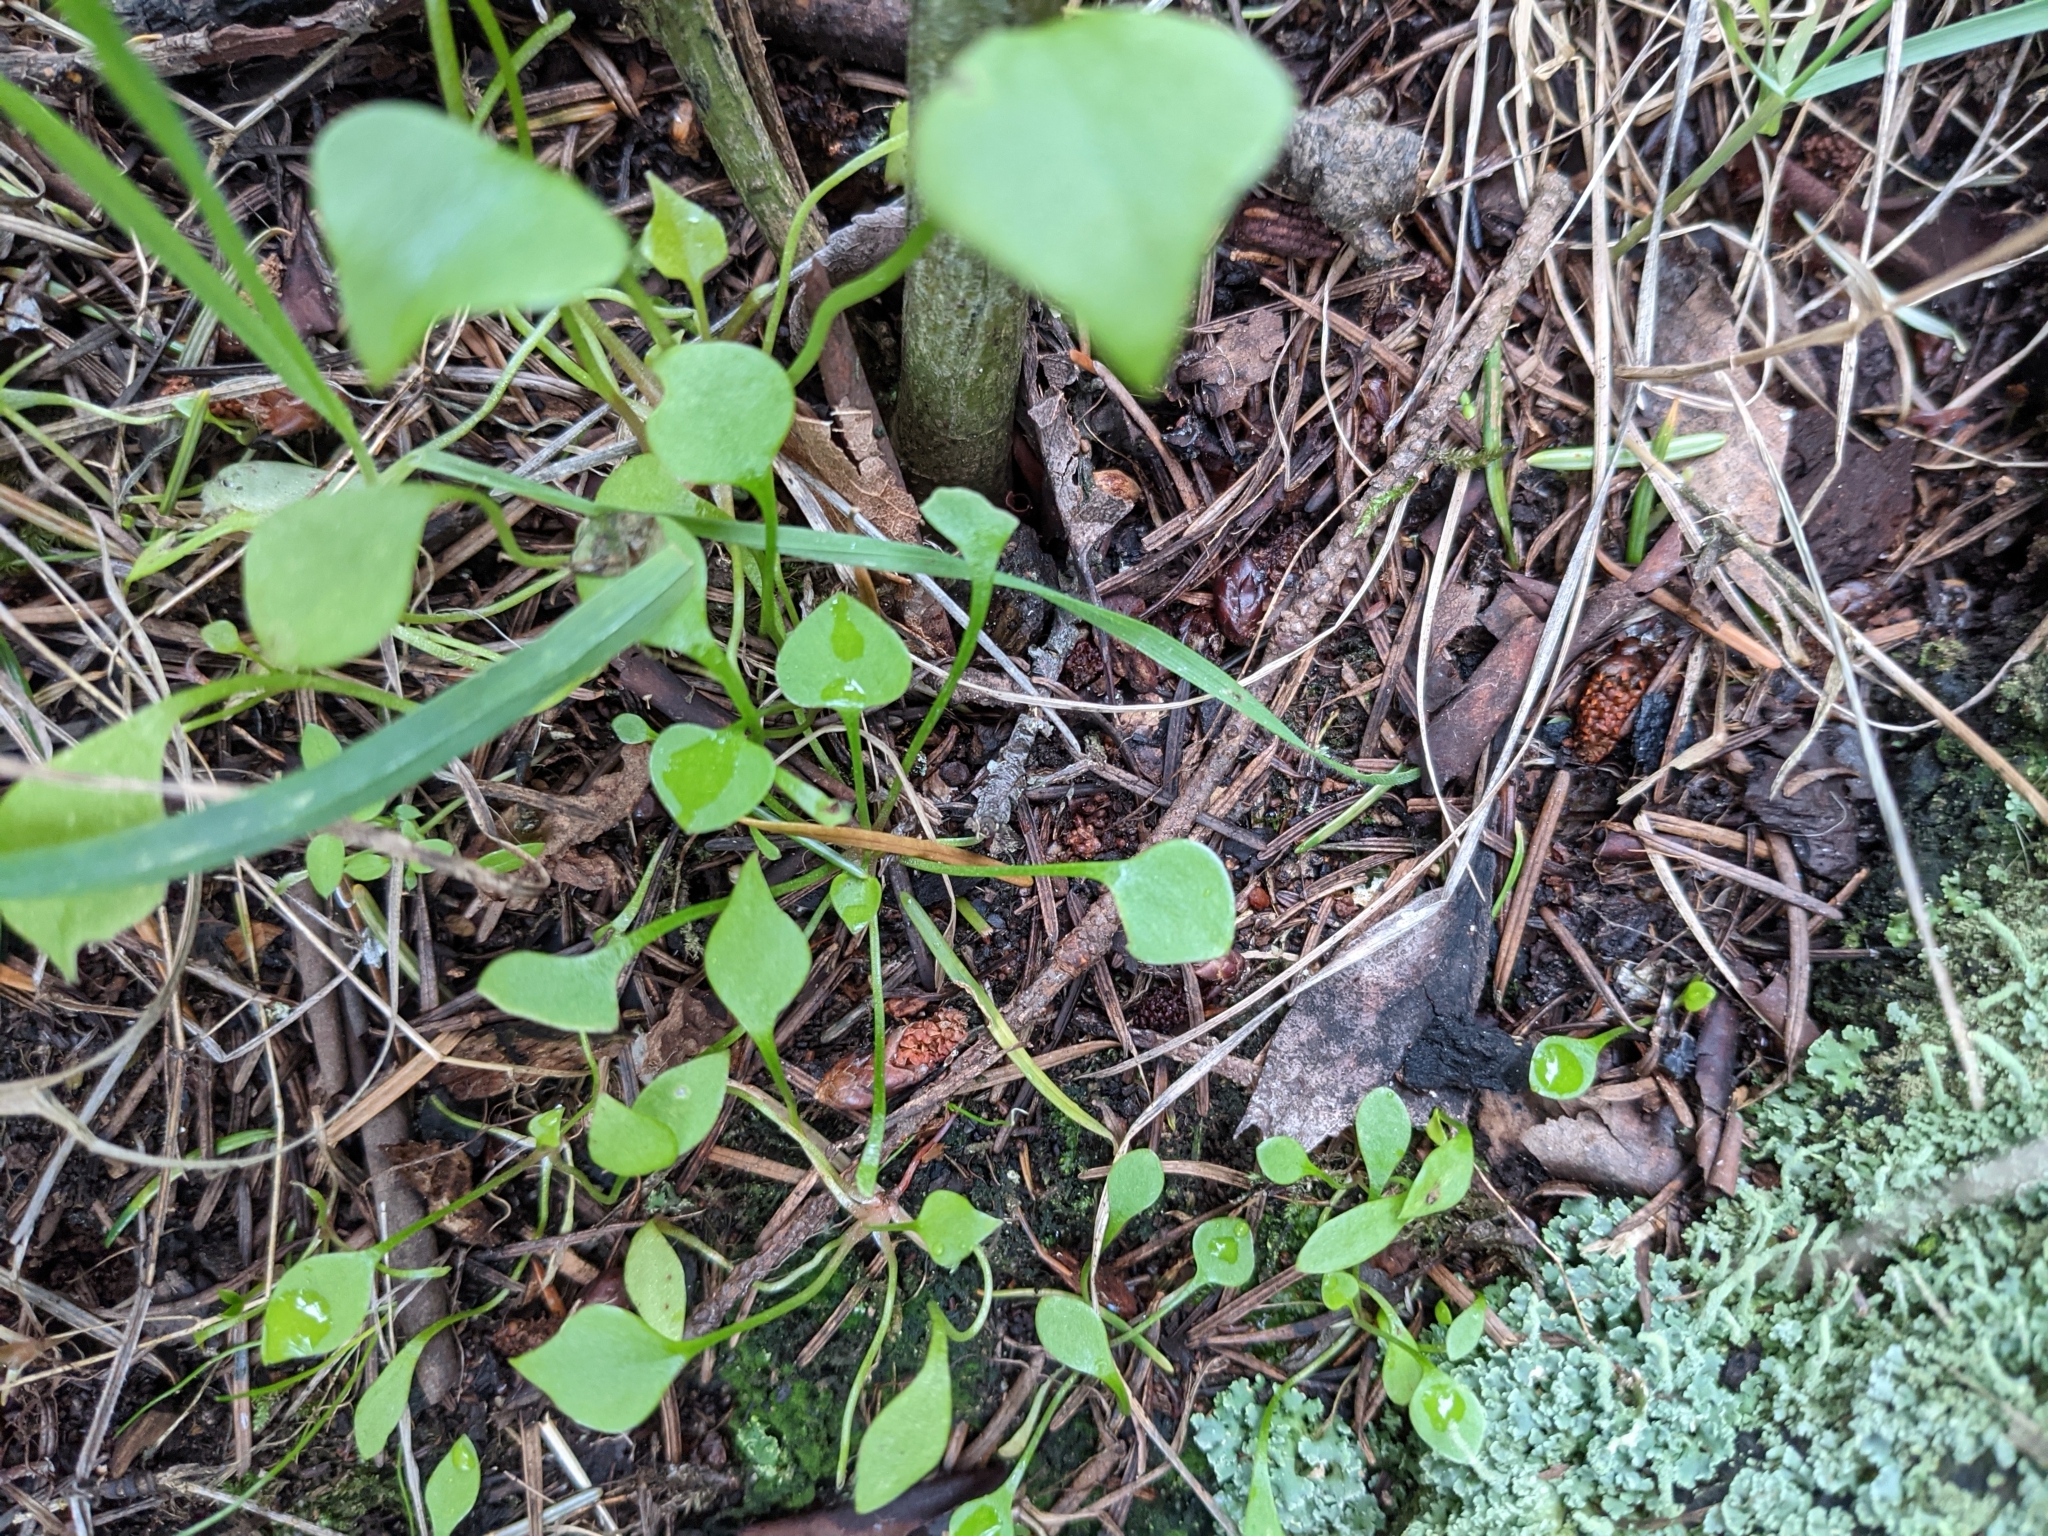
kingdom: Plantae
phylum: Tracheophyta
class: Magnoliopsida
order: Caryophyllales
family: Montiaceae
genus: Claytonia
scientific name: Claytonia perfoliata
